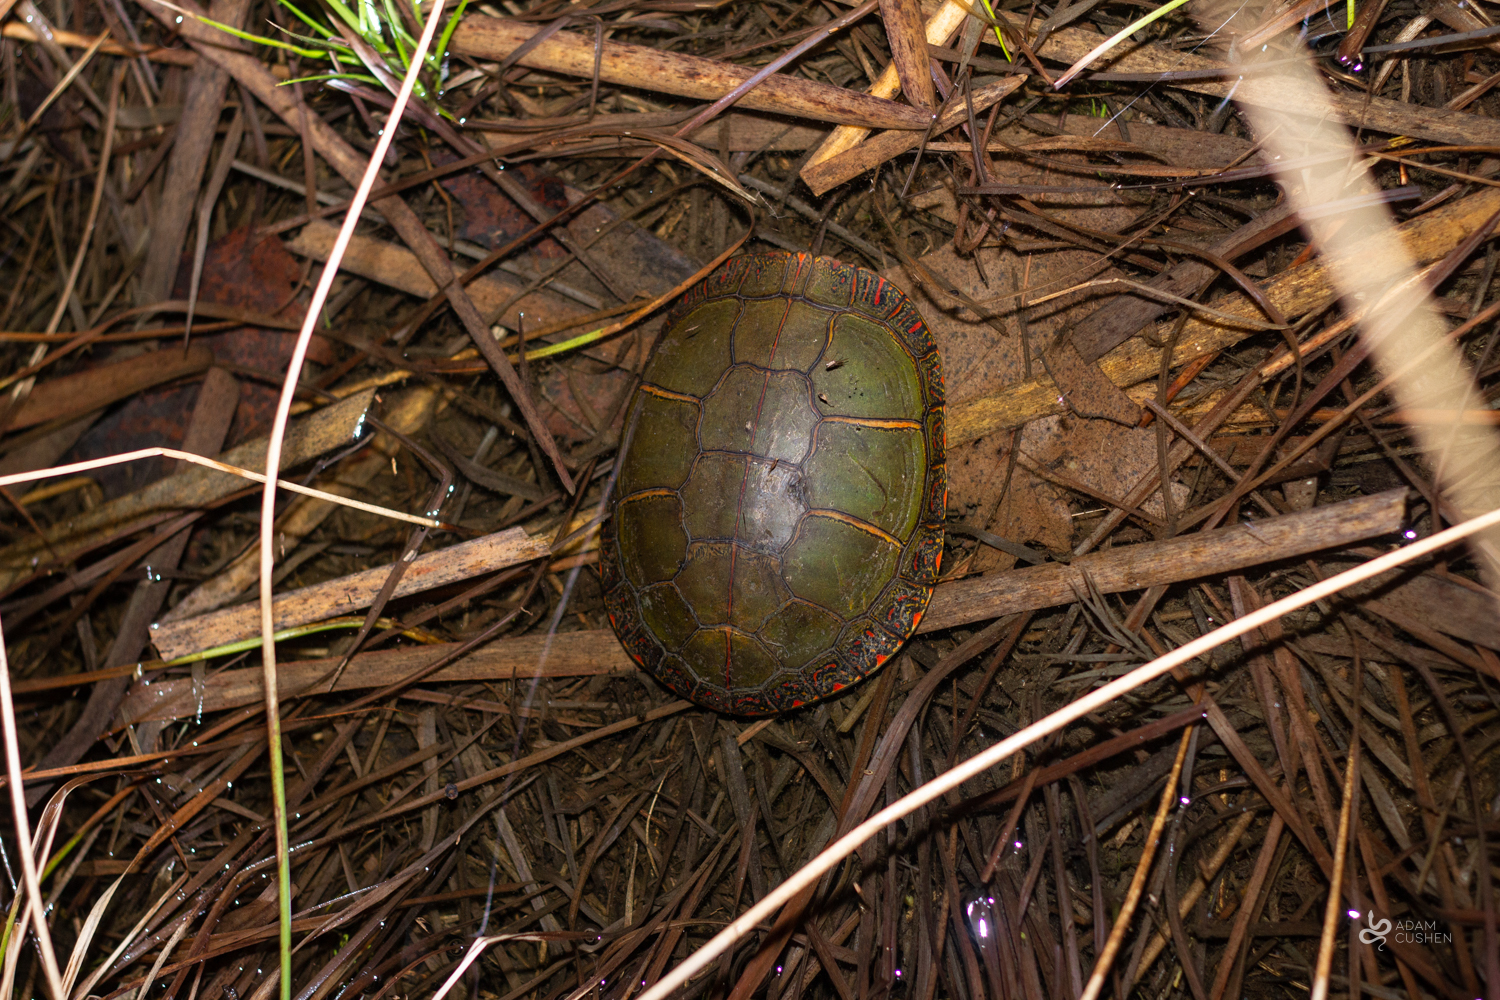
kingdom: Animalia
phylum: Chordata
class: Testudines
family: Emydidae
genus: Chrysemys
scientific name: Chrysemys picta
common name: Painted turtle
